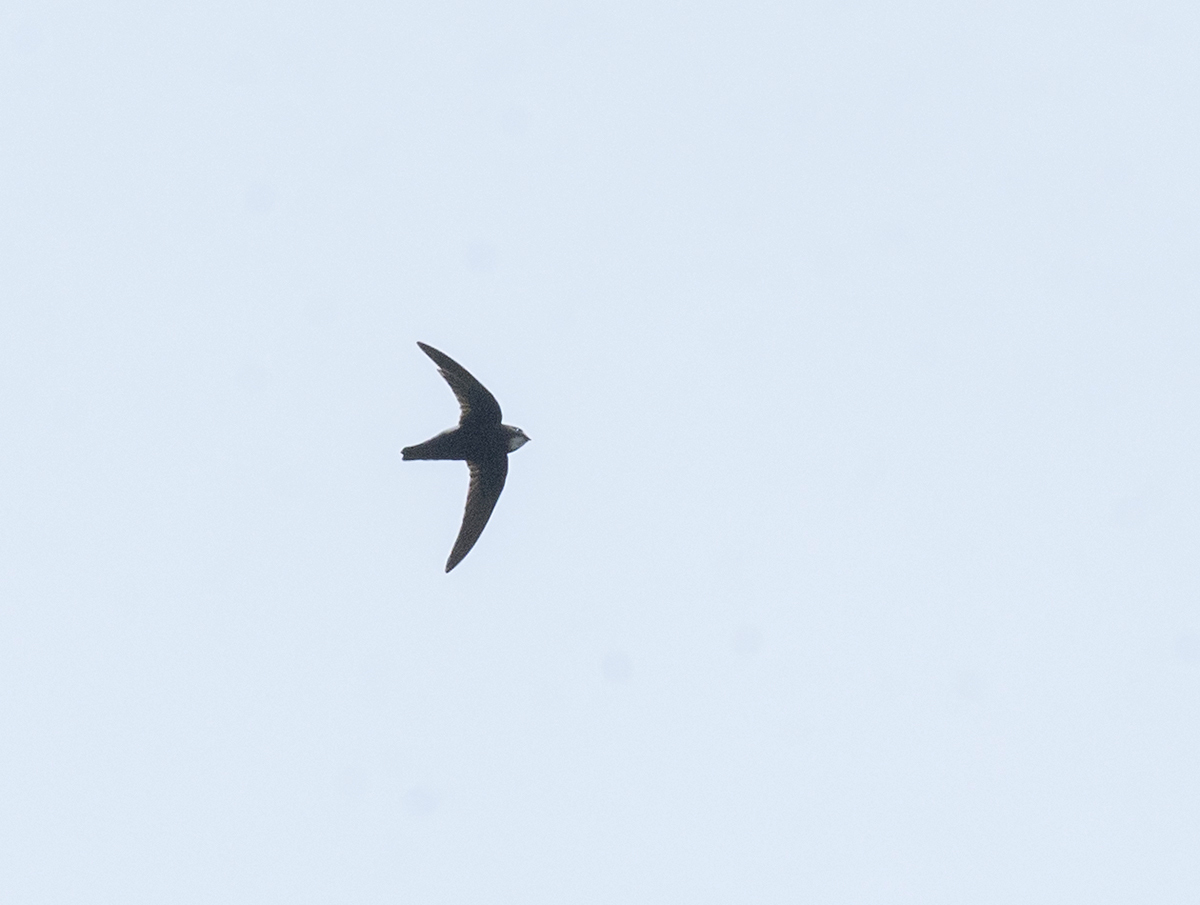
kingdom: Animalia
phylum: Chordata
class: Aves
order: Apodiformes
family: Apodidae
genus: Apus
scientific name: Apus affinis
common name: Little swift
